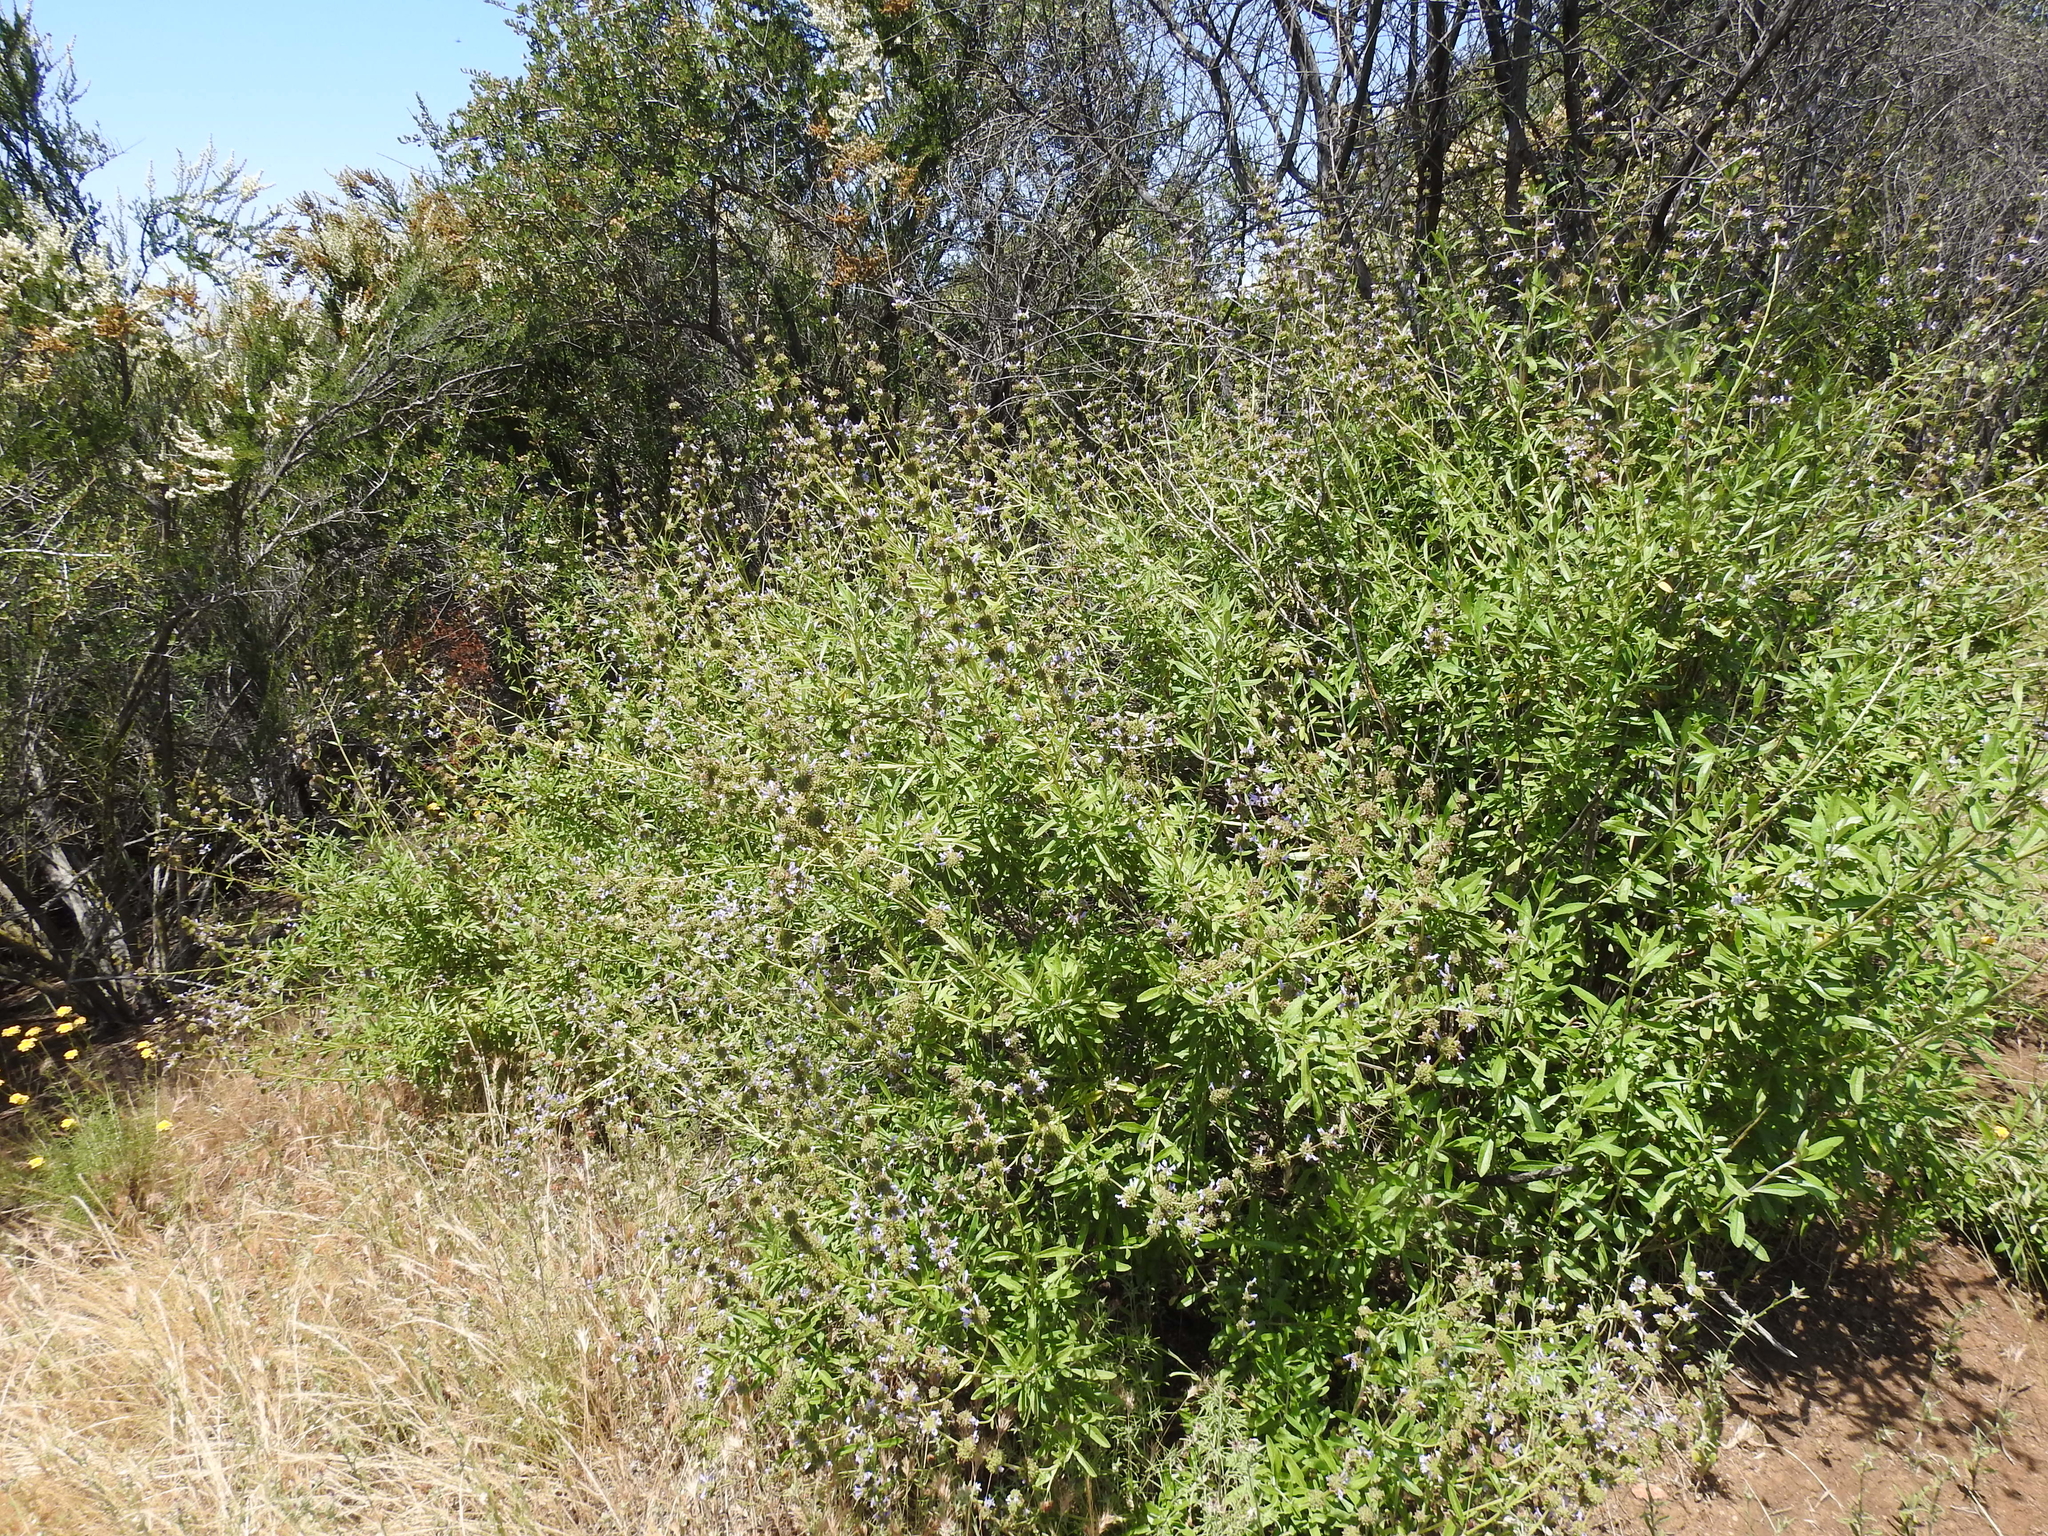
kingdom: Plantae
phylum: Tracheophyta
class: Magnoliopsida
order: Lamiales
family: Lamiaceae
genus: Salvia
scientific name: Salvia mellifera
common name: Black sage
